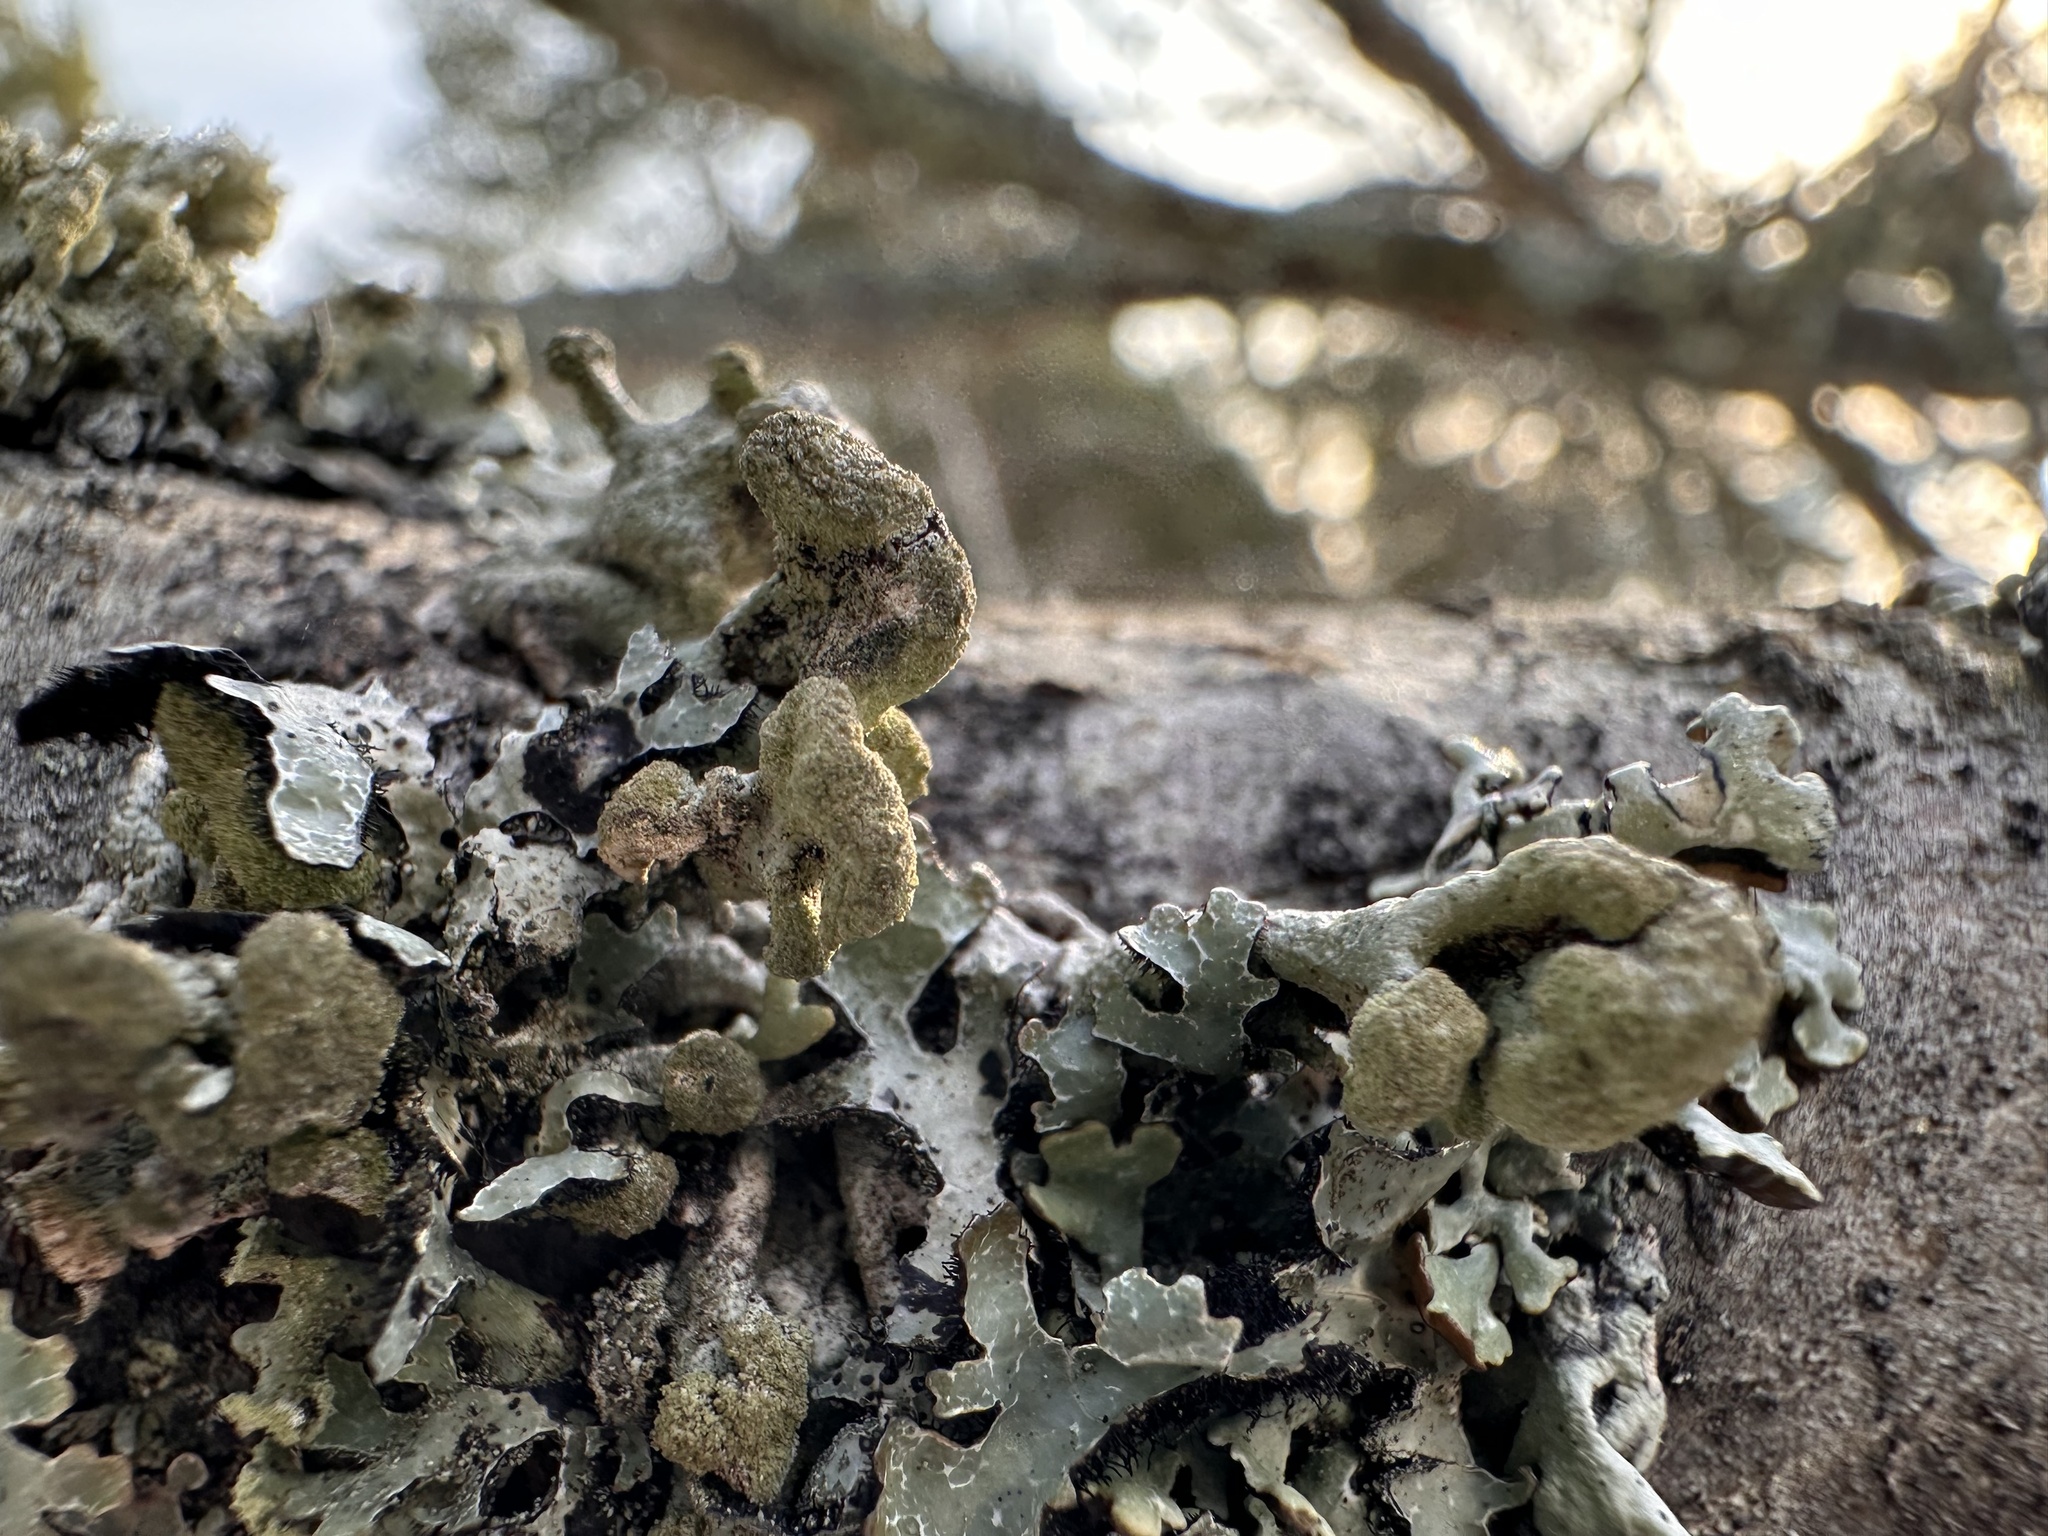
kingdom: Fungi
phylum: Ascomycota
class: Lecanoromycetes
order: Lecanorales
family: Parmeliaceae
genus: Hypogymnia
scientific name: Hypogymnia tubulosa
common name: Powder-headed tube lichen
